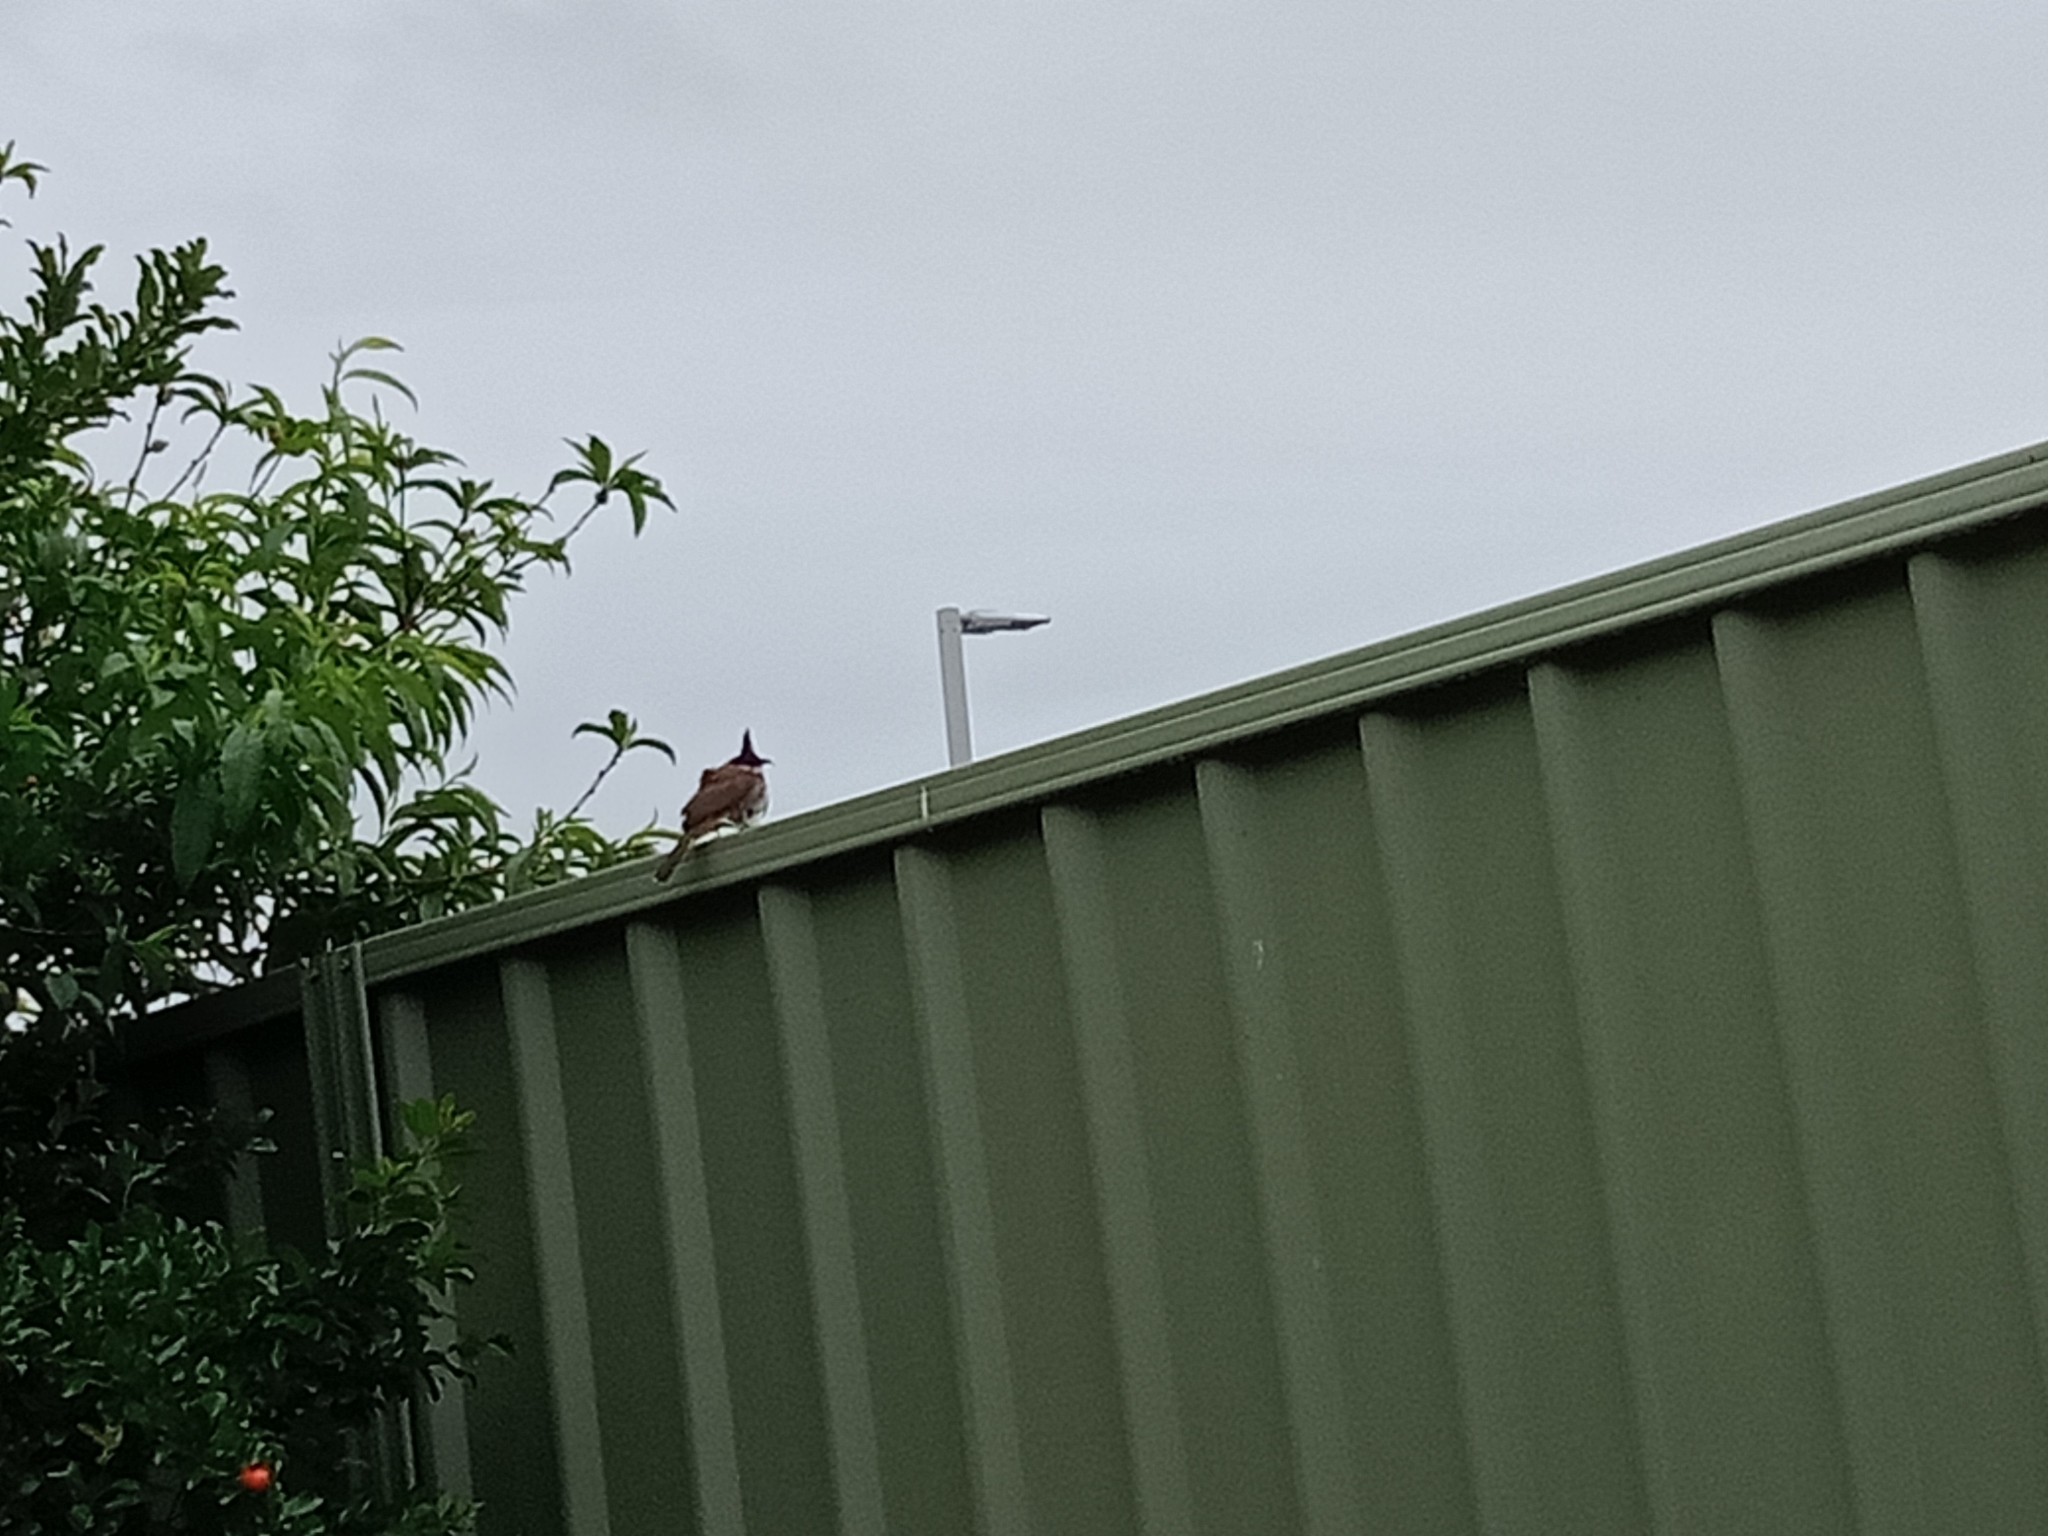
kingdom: Animalia
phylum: Chordata
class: Aves
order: Passeriformes
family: Pycnonotidae
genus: Pycnonotus
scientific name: Pycnonotus jocosus
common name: Red-whiskered bulbul
